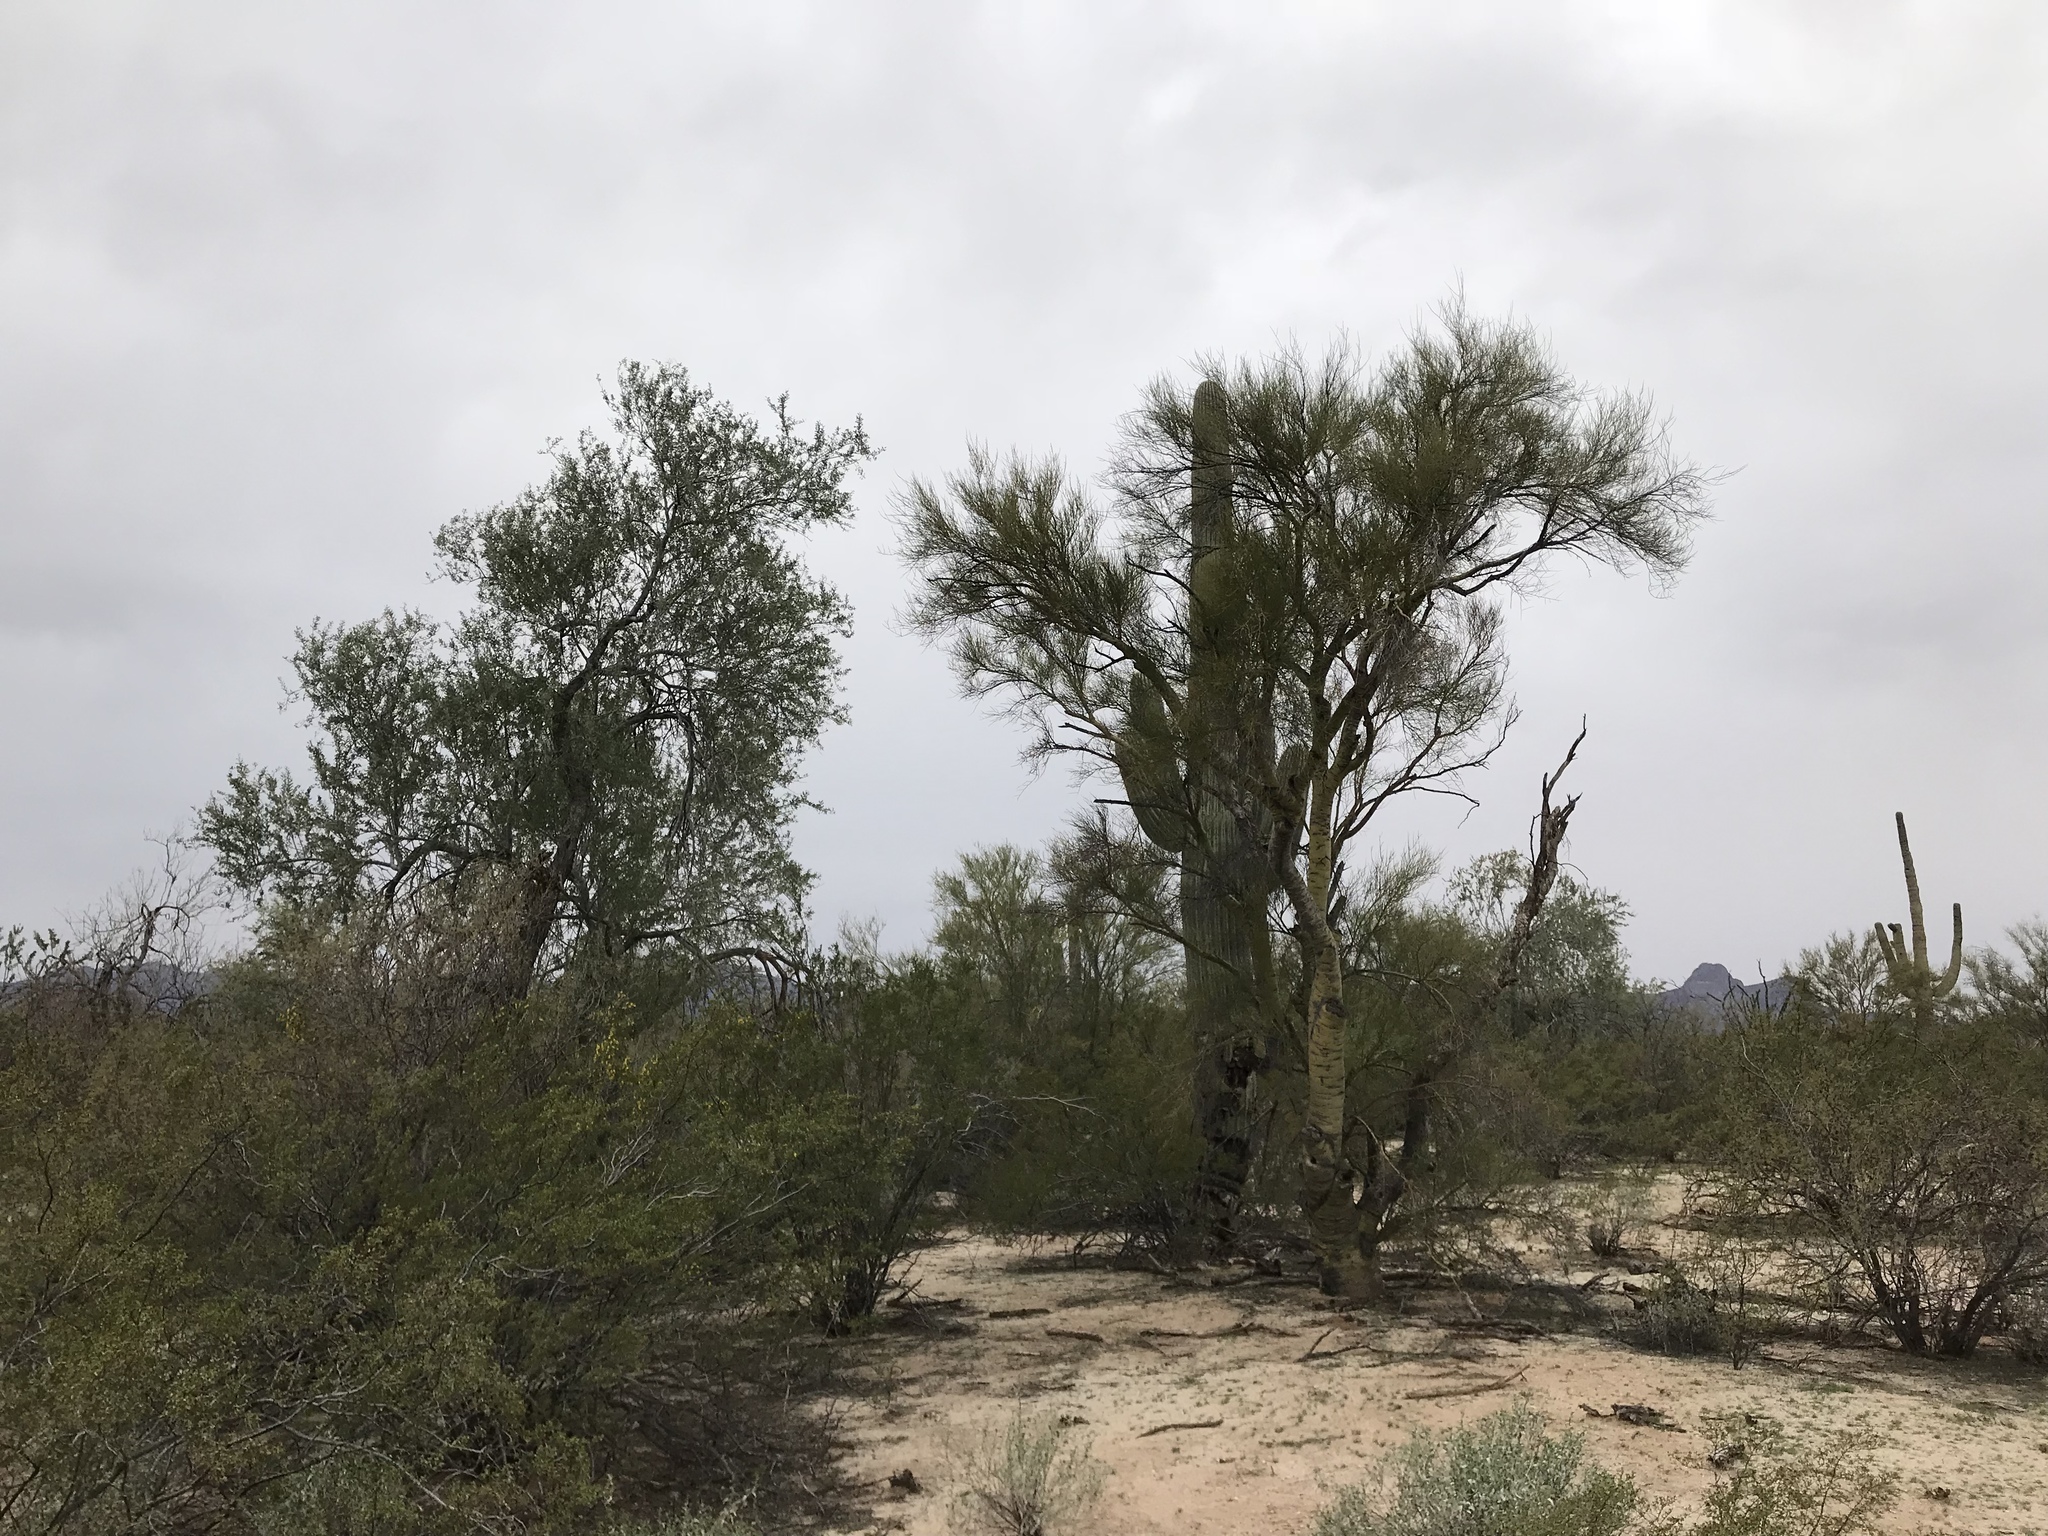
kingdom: Plantae
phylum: Tracheophyta
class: Magnoliopsida
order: Fabales
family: Fabaceae
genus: Olneya
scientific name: Olneya tesota
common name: Desert ironwood
